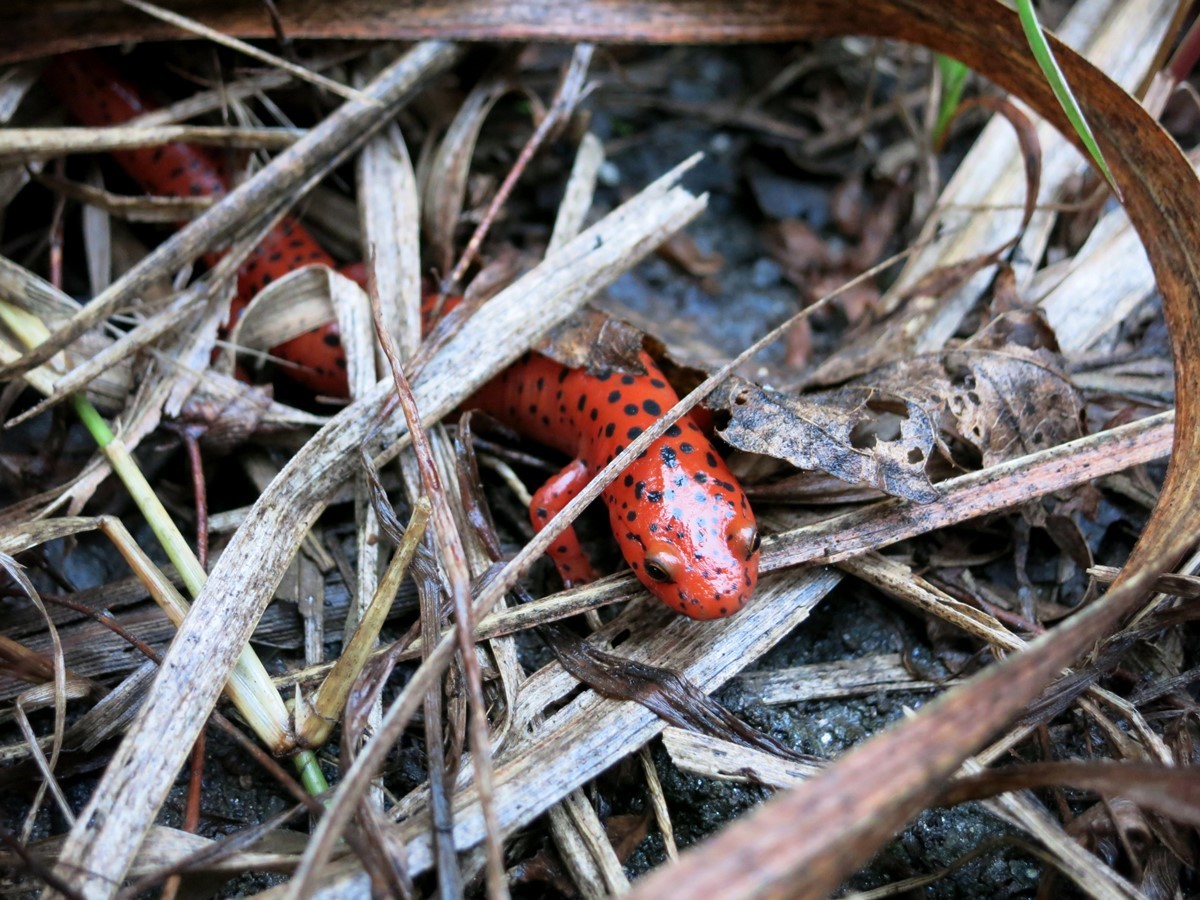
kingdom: Animalia
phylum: Chordata
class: Amphibia
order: Caudata
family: Plethodontidae
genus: Pseudotriton
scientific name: Pseudotriton ruber
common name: Red salamander
